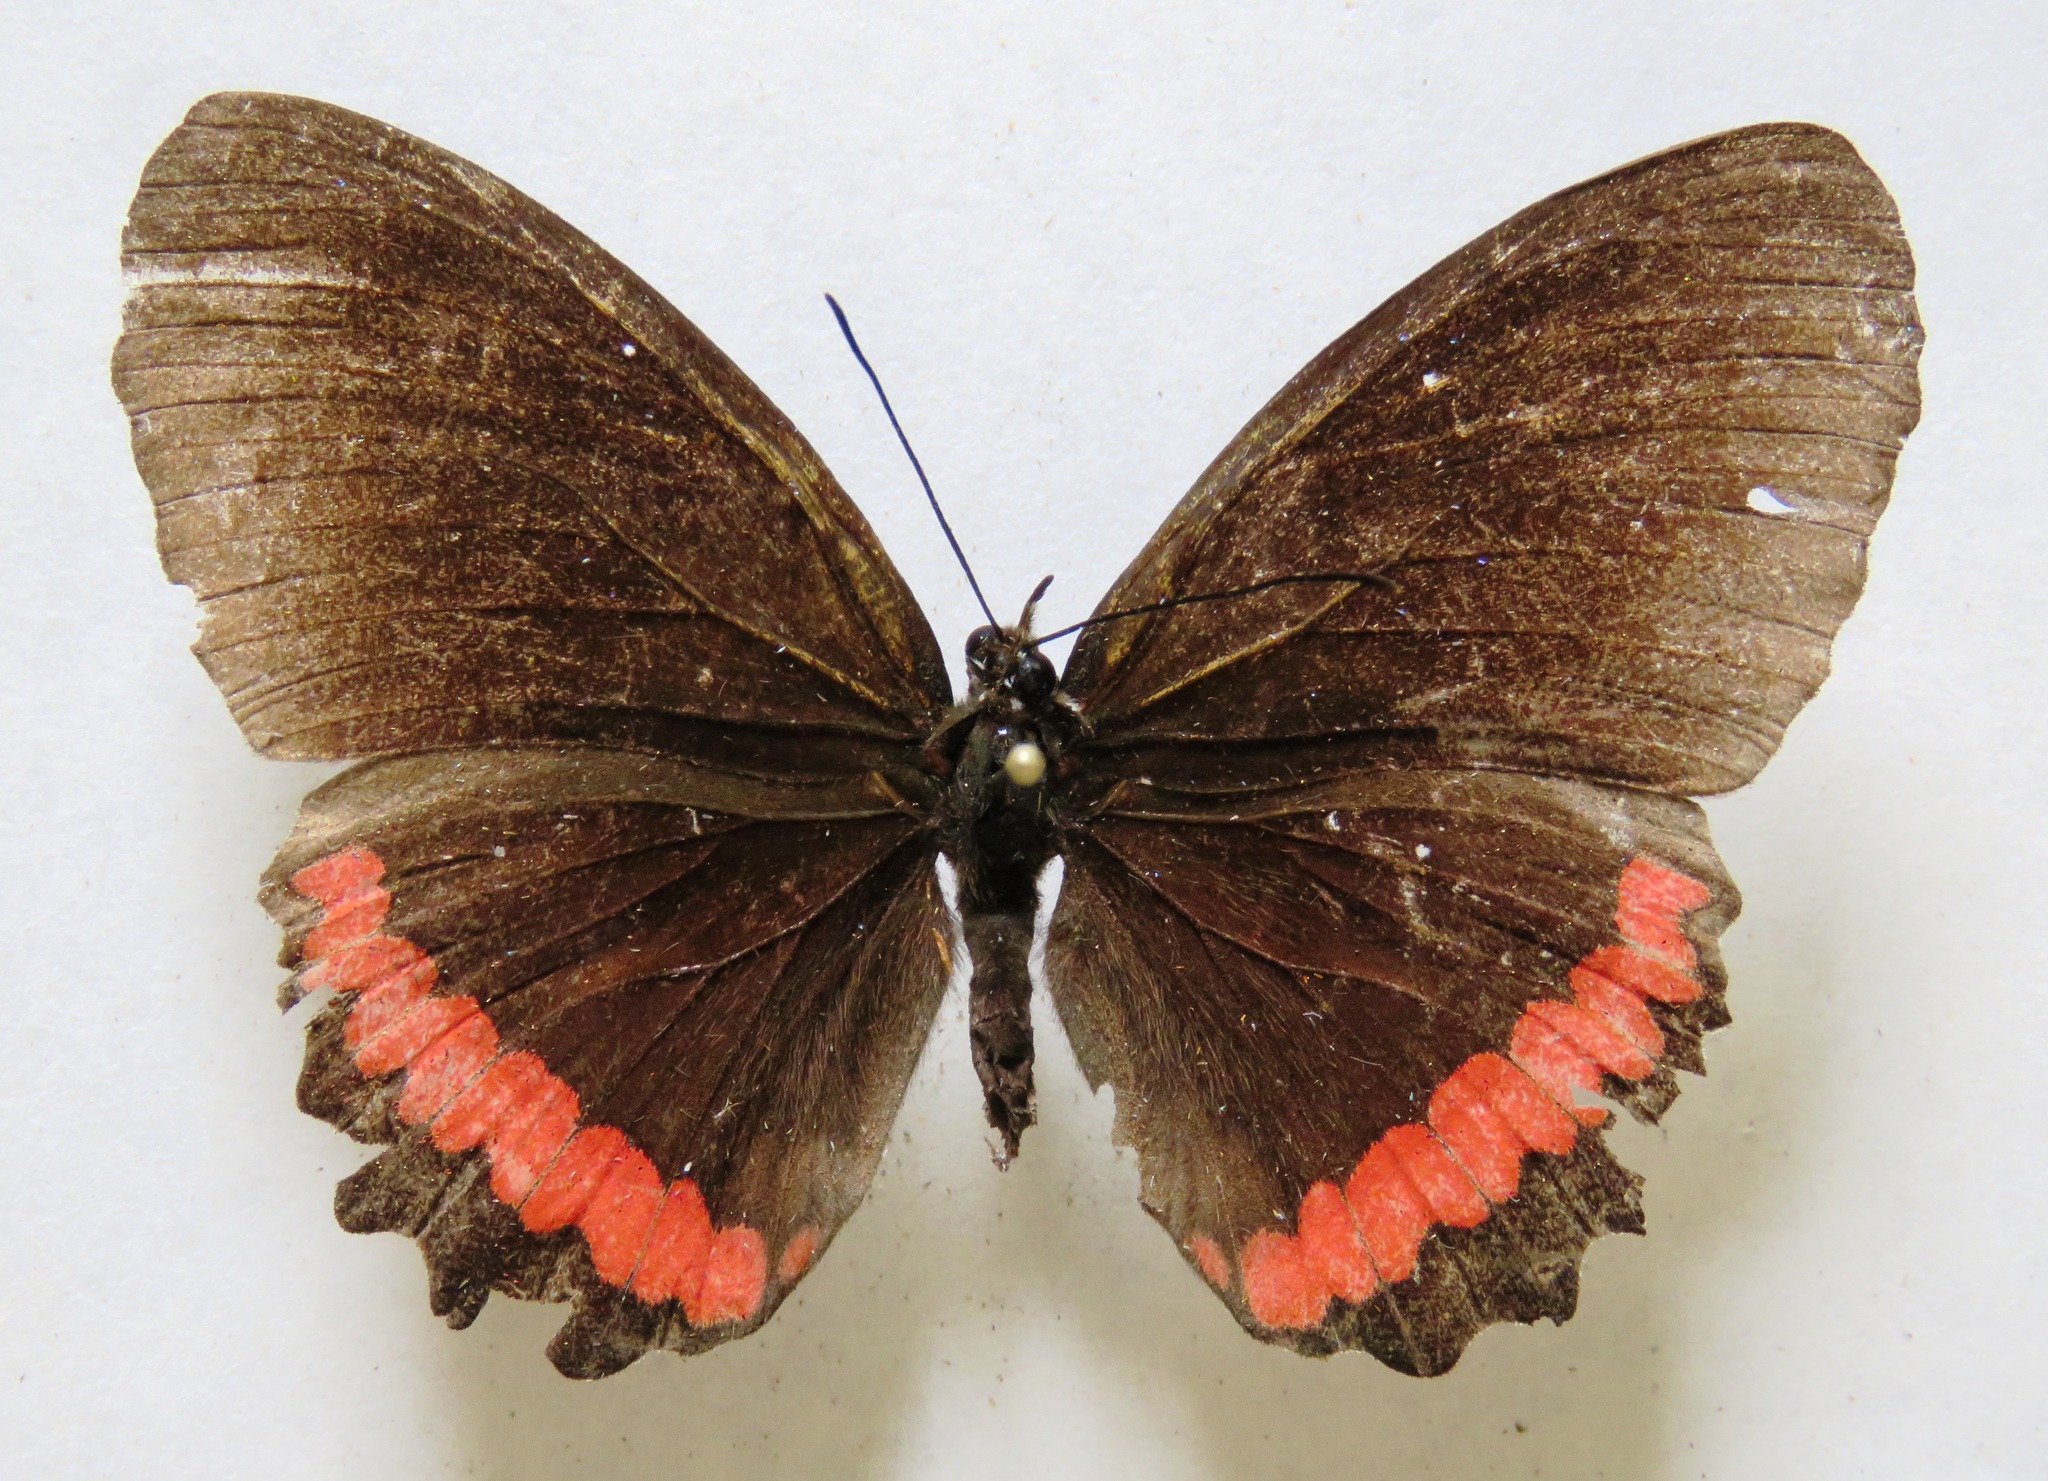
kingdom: Animalia
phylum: Arthropoda
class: Insecta
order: Lepidoptera
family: Nymphalidae
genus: Biblis
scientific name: Biblis aganisa
